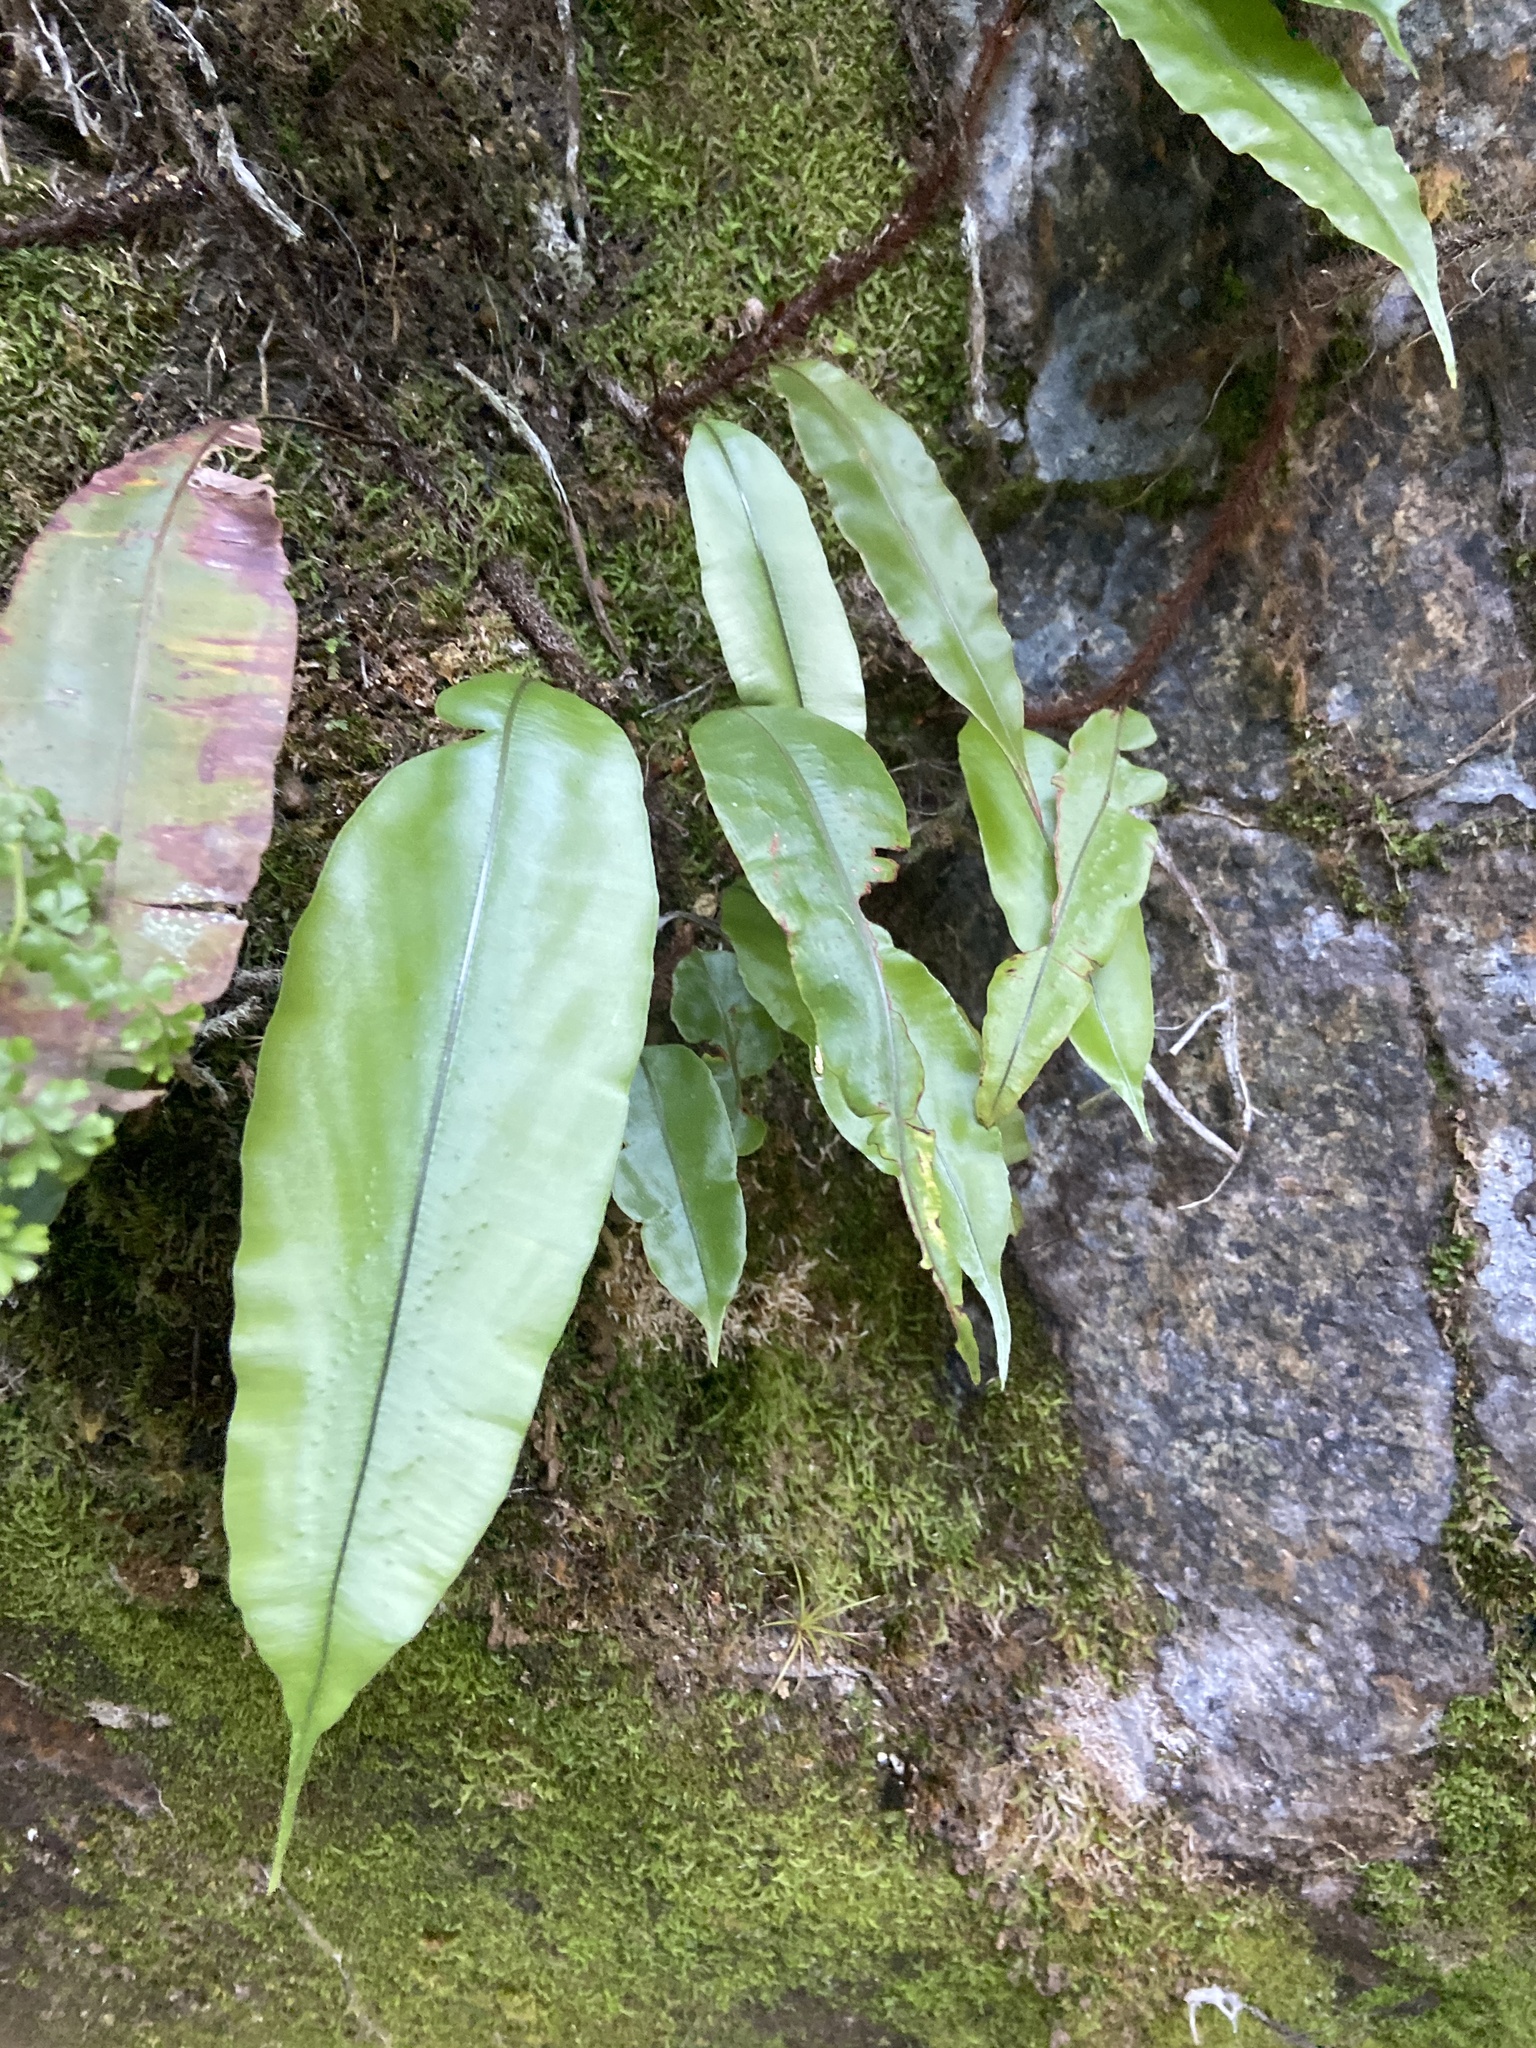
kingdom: Plantae
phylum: Tracheophyta
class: Polypodiopsida
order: Polypodiales
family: Oleandraceae
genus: Oleandra
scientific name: Oleandra articulata
